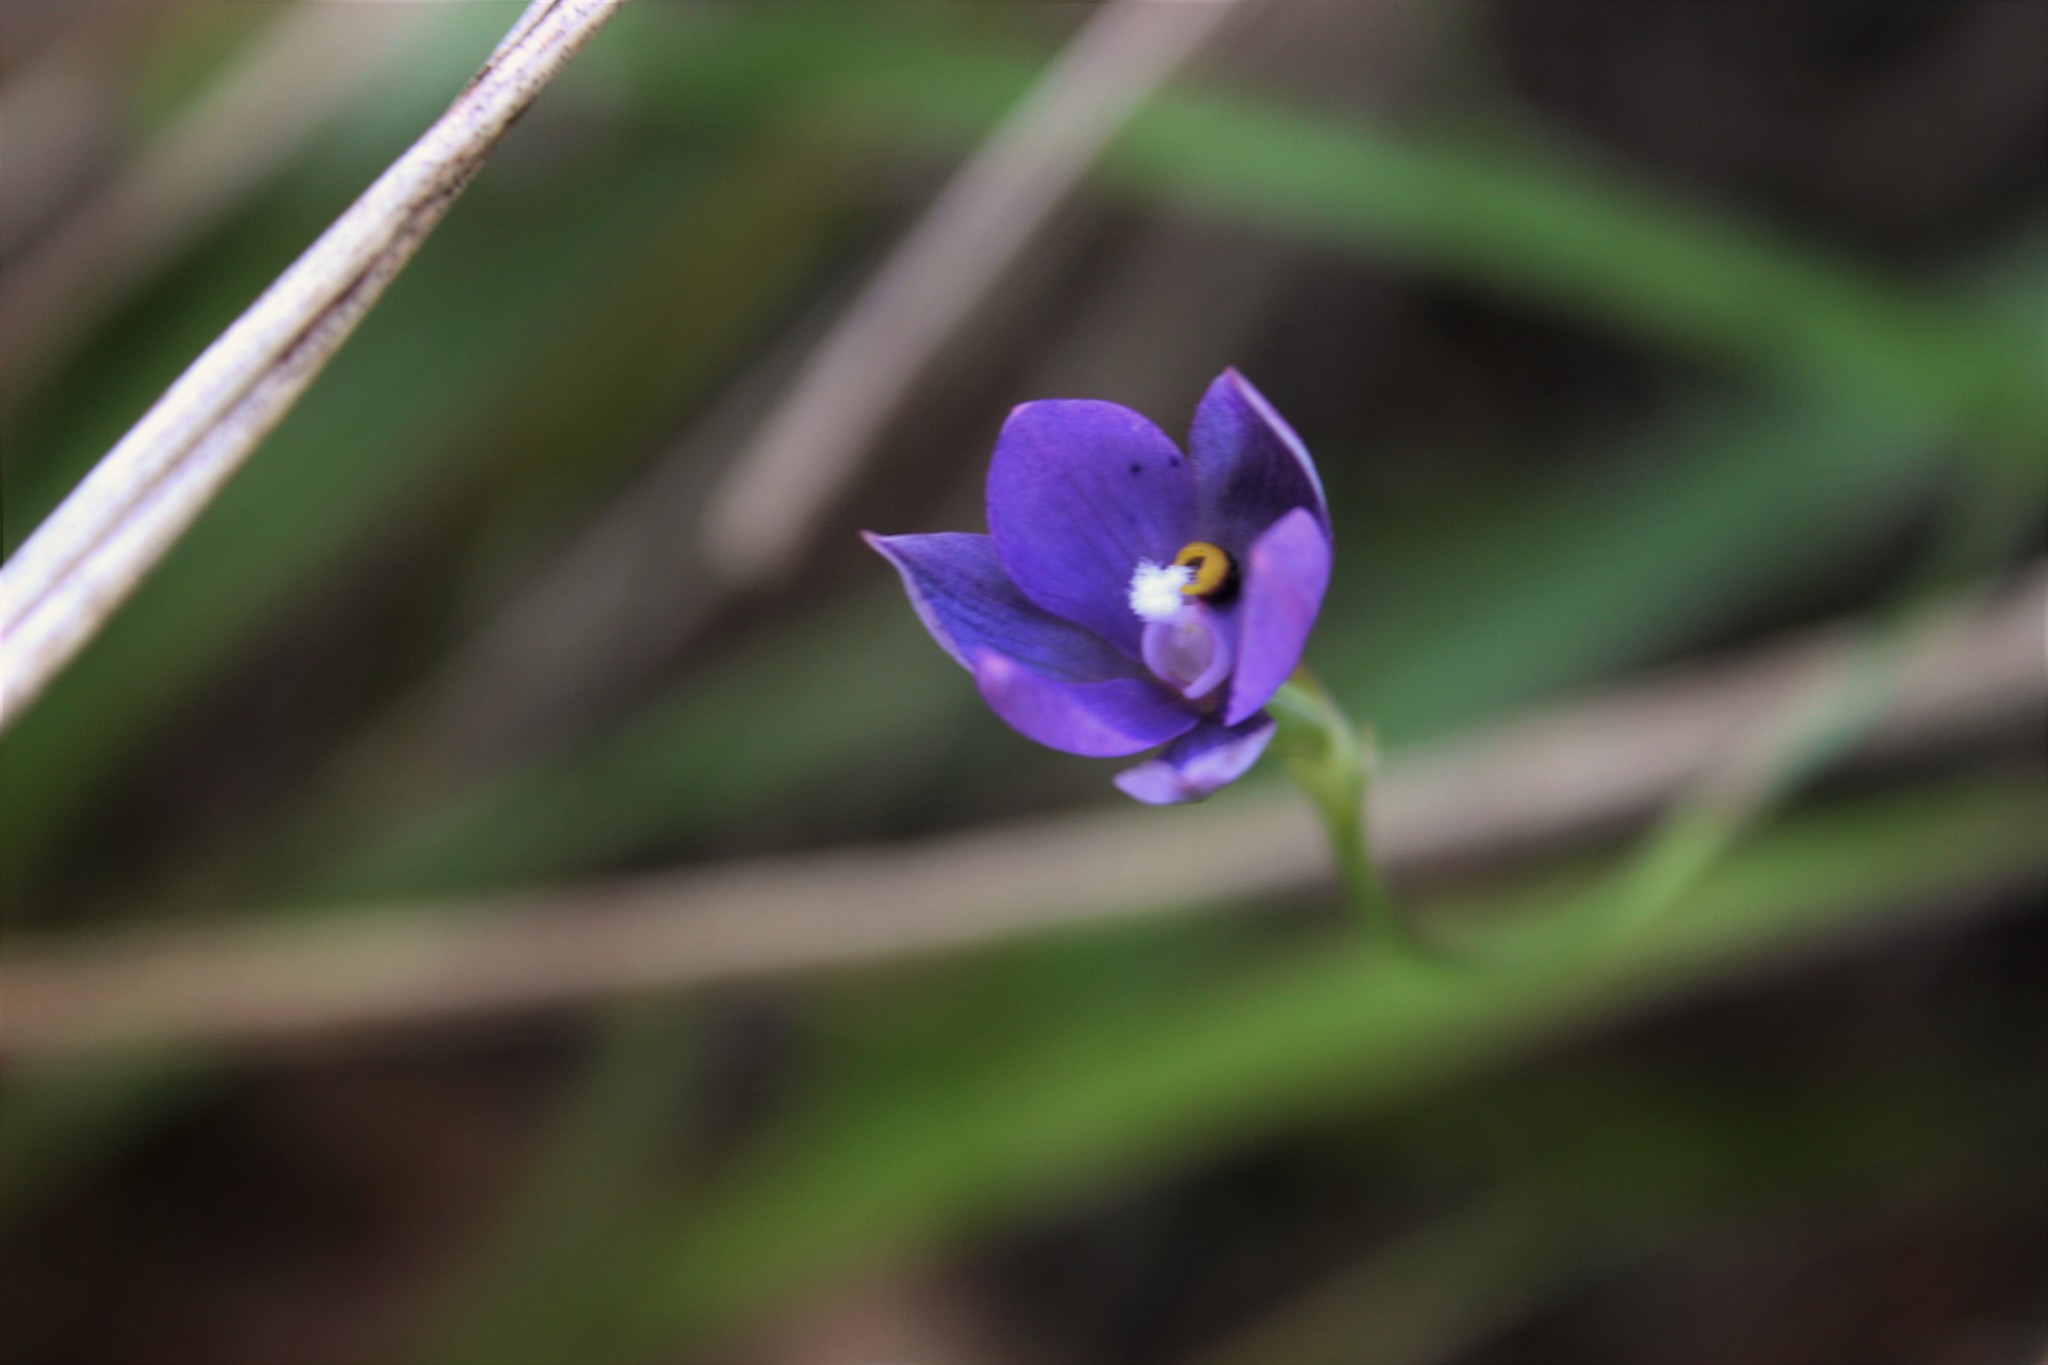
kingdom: Plantae
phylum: Tracheophyta
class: Liliopsida
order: Asparagales
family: Orchidaceae
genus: Thelymitra
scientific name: Thelymitra nervosa
